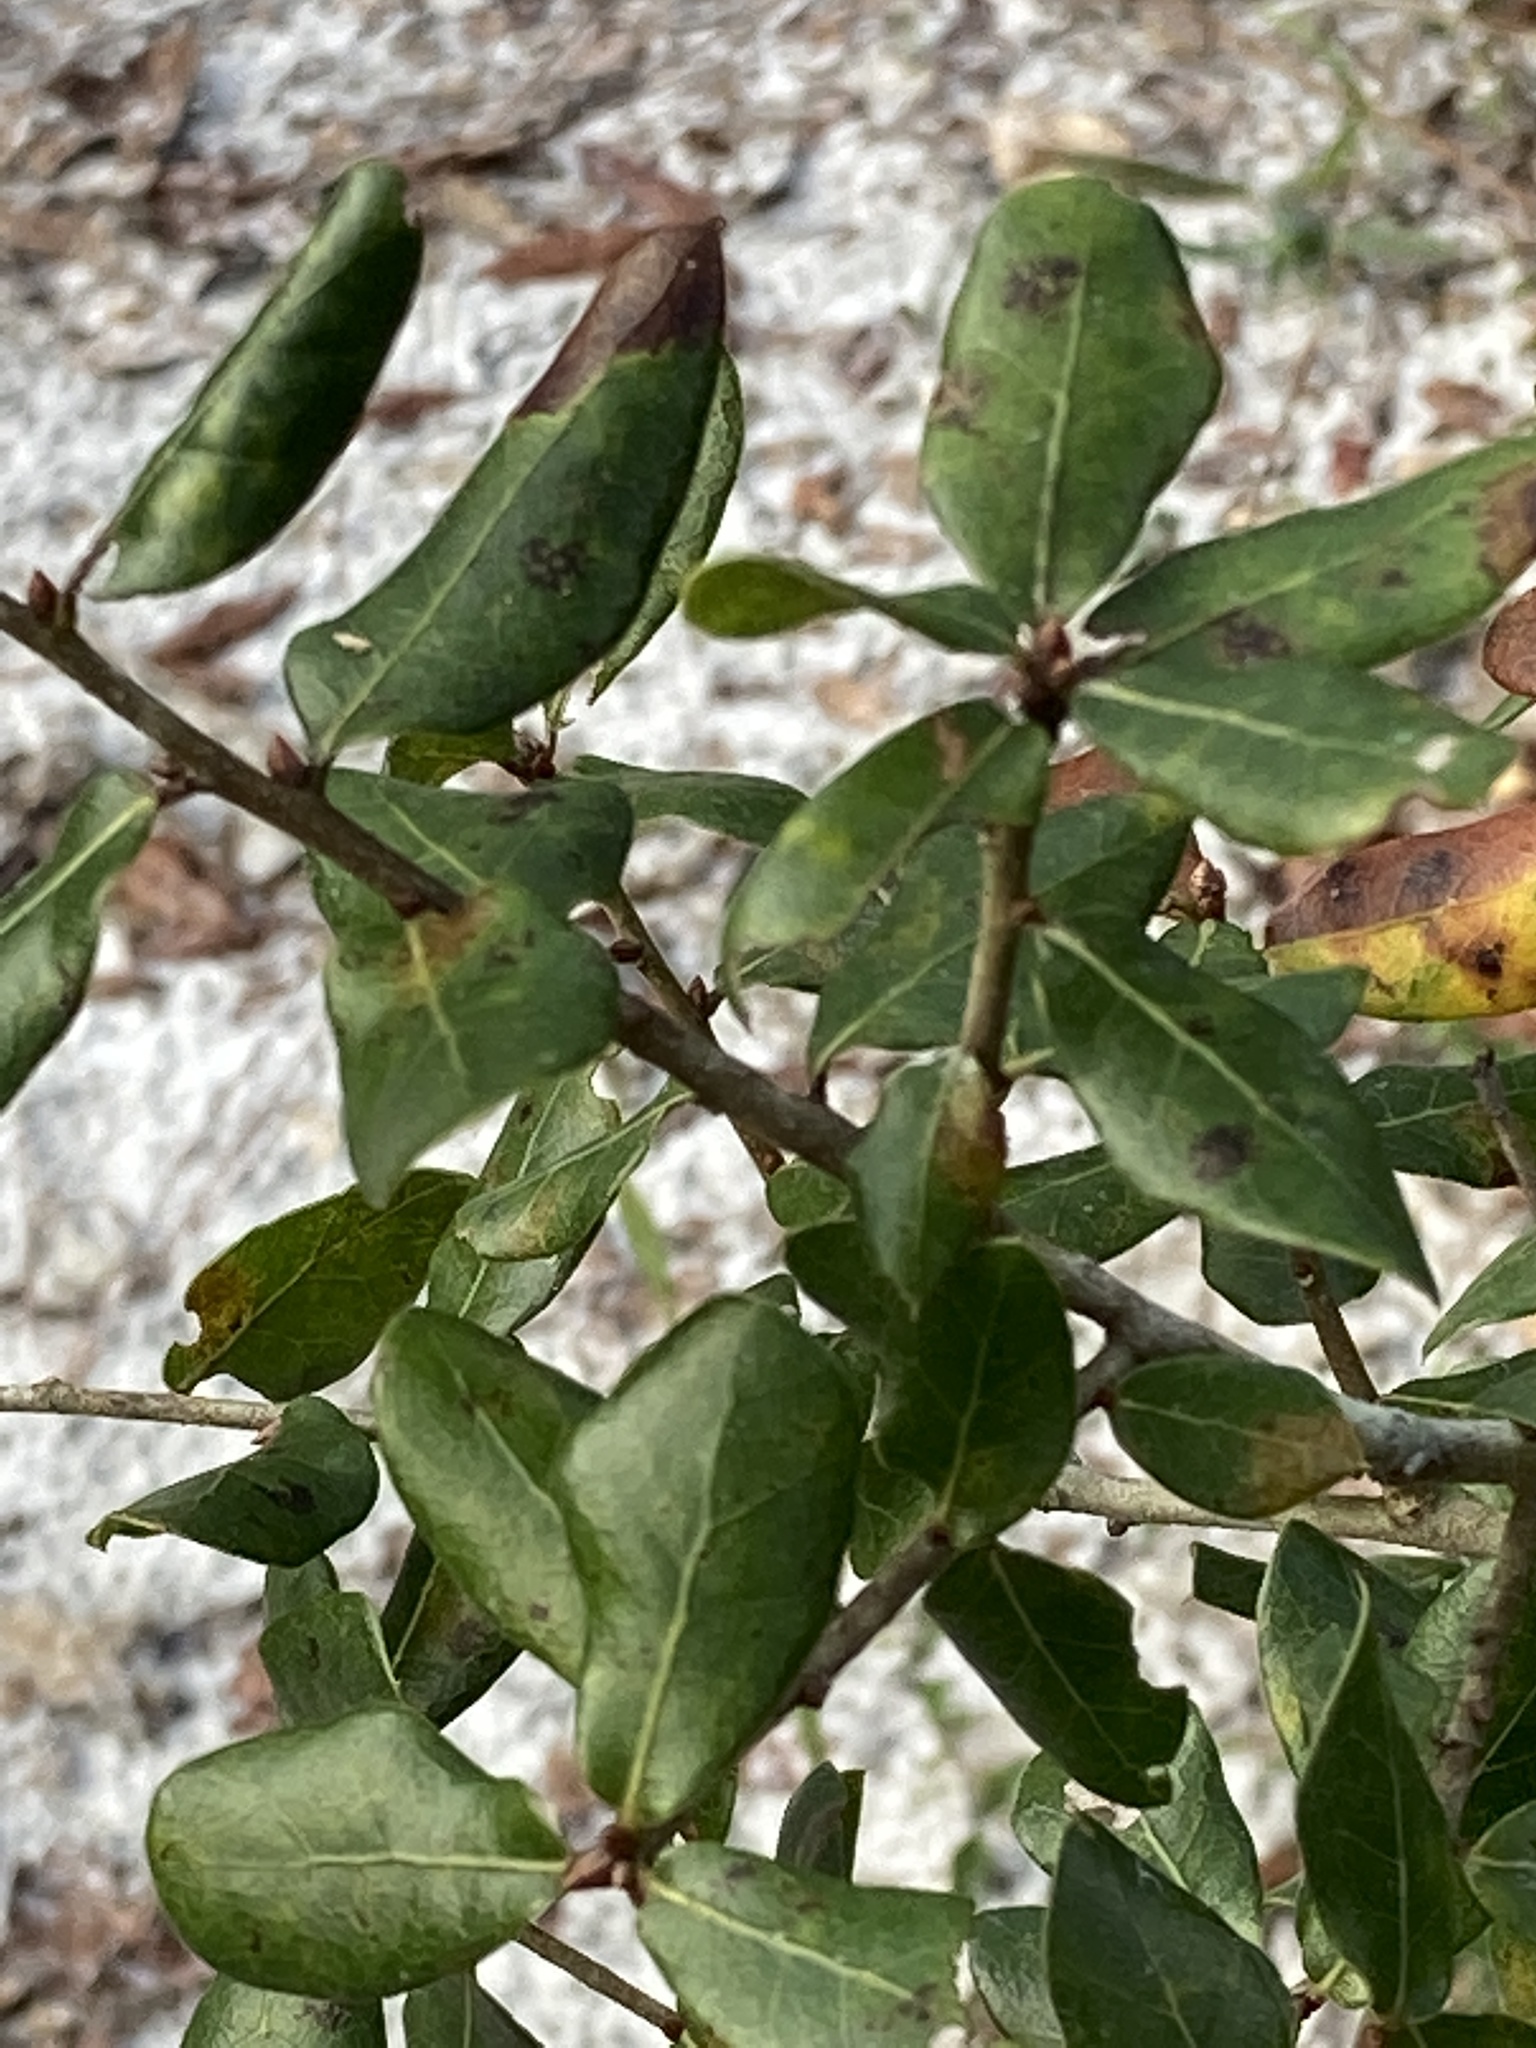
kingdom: Plantae
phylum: Tracheophyta
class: Magnoliopsida
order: Fagales
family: Fagaceae
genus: Quercus
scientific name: Quercus myrtifolia
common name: Myrtle oak
